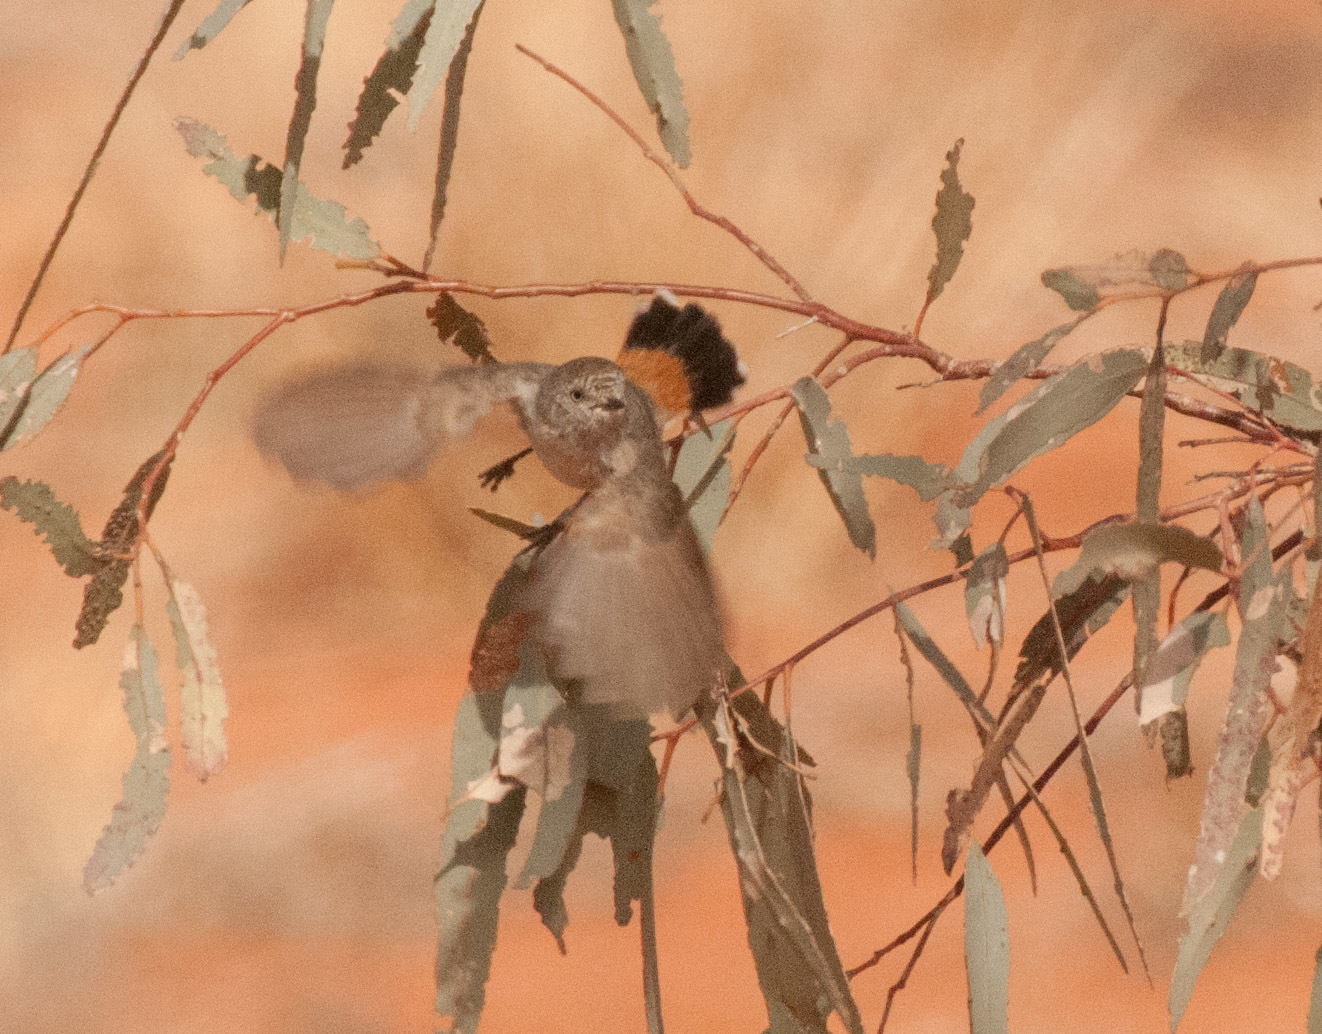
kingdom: Animalia
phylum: Chordata
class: Aves
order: Passeriformes
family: Acanthizidae
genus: Acanthiza
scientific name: Acanthiza uropygialis
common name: Chestnut-rumped thornbill
